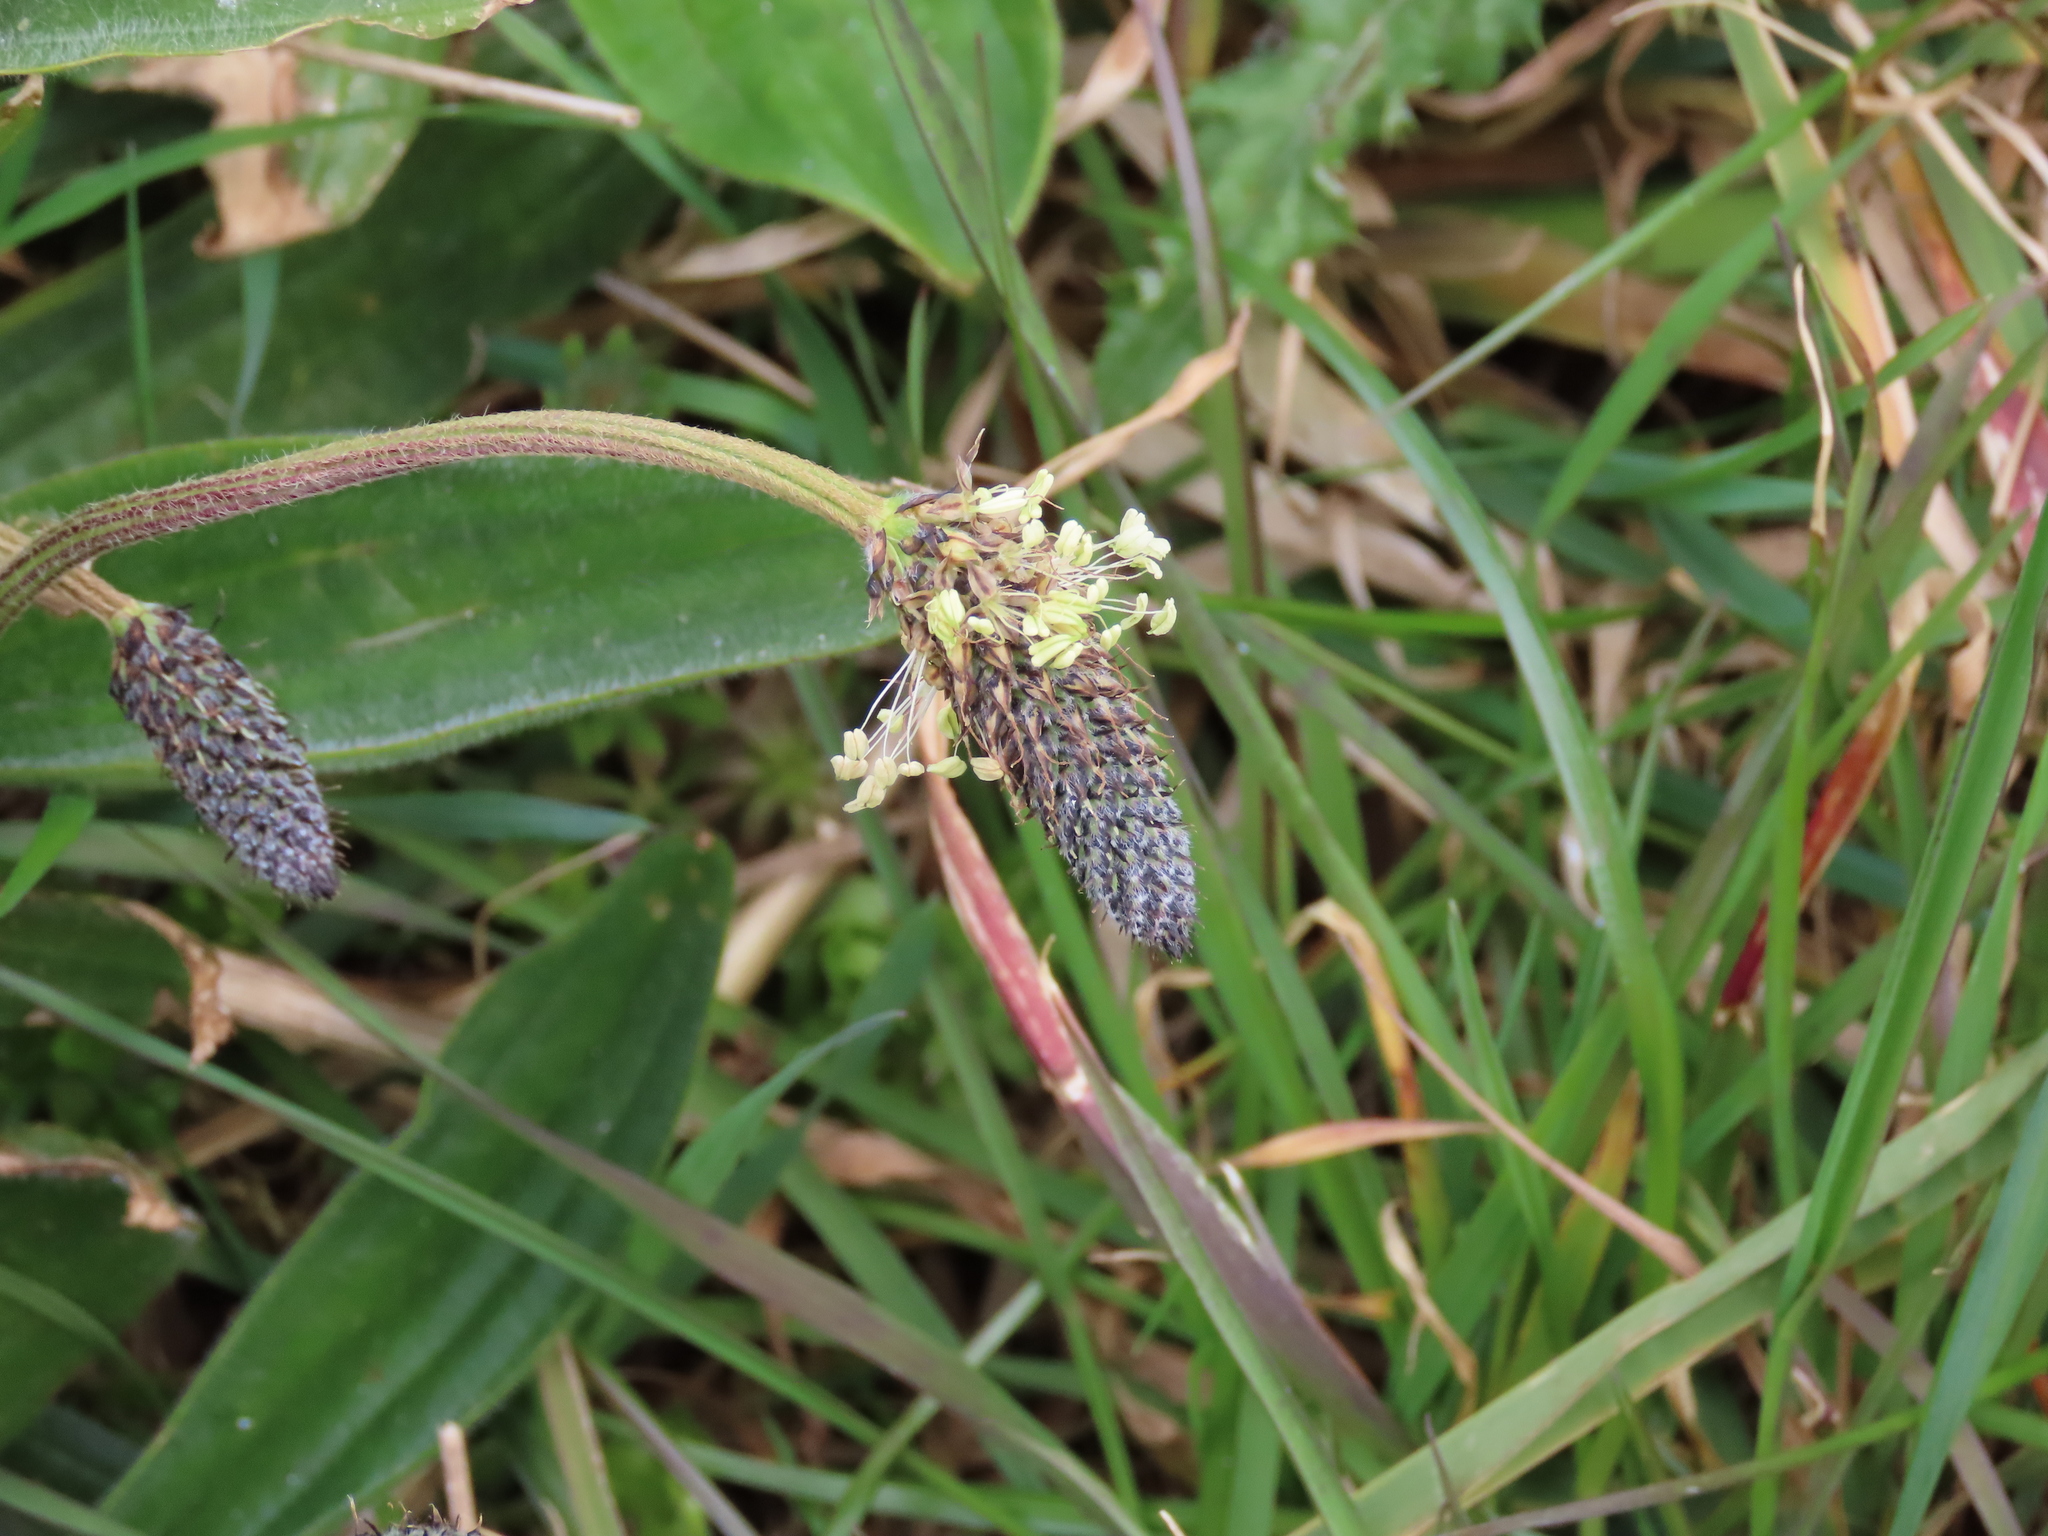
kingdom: Plantae
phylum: Tracheophyta
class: Magnoliopsida
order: Lamiales
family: Plantaginaceae
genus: Plantago
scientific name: Plantago lanceolata
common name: Ribwort plantain
